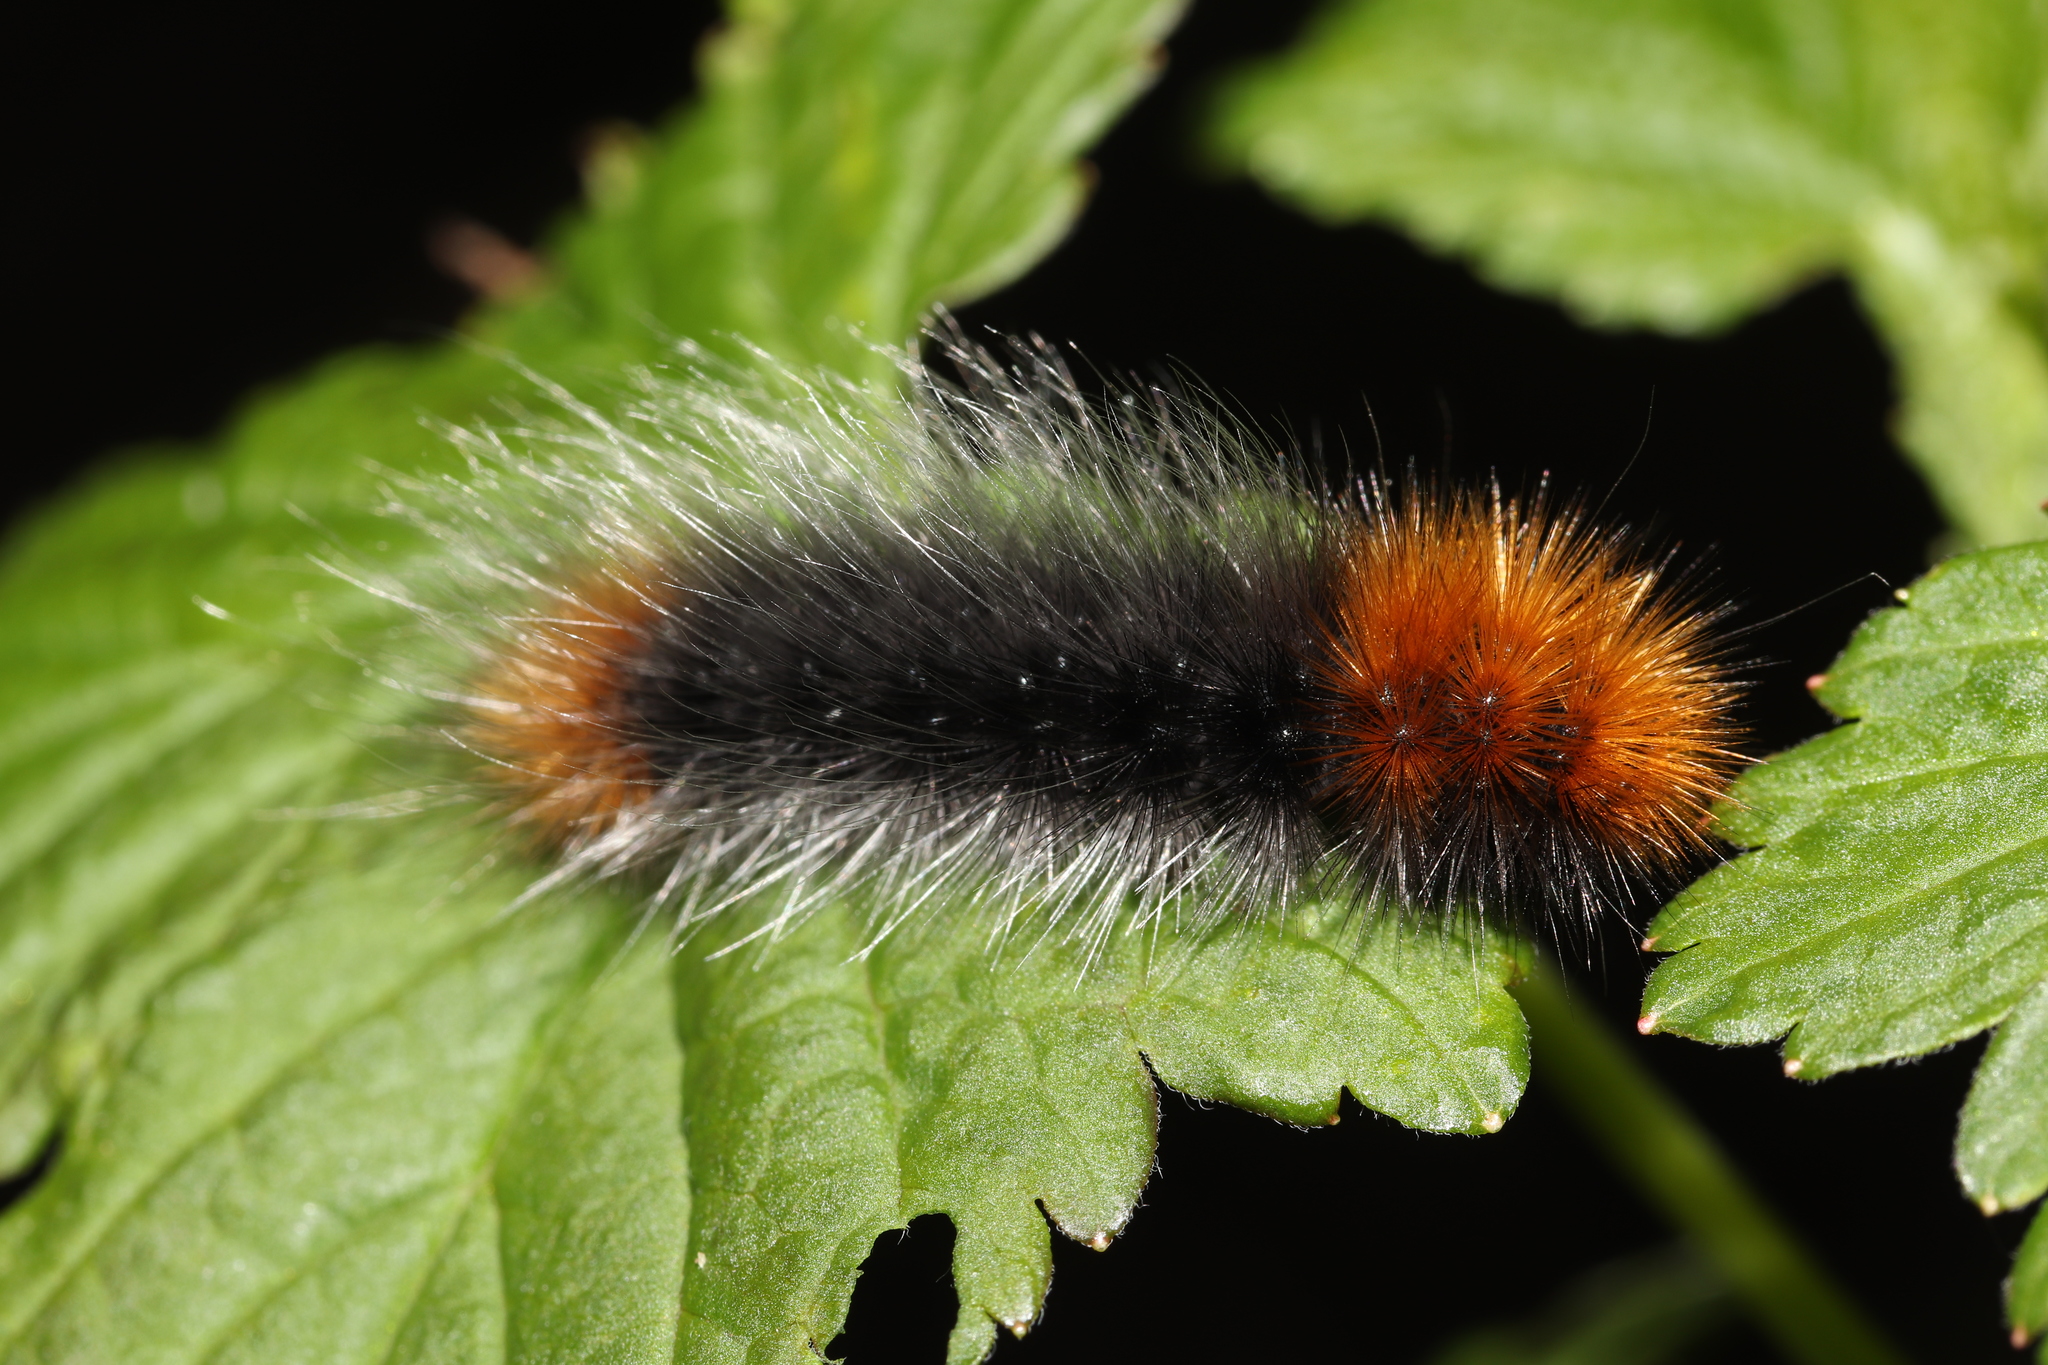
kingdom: Animalia
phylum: Arthropoda
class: Insecta
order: Lepidoptera
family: Erebidae
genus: Arctia
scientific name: Arctia tigrina
